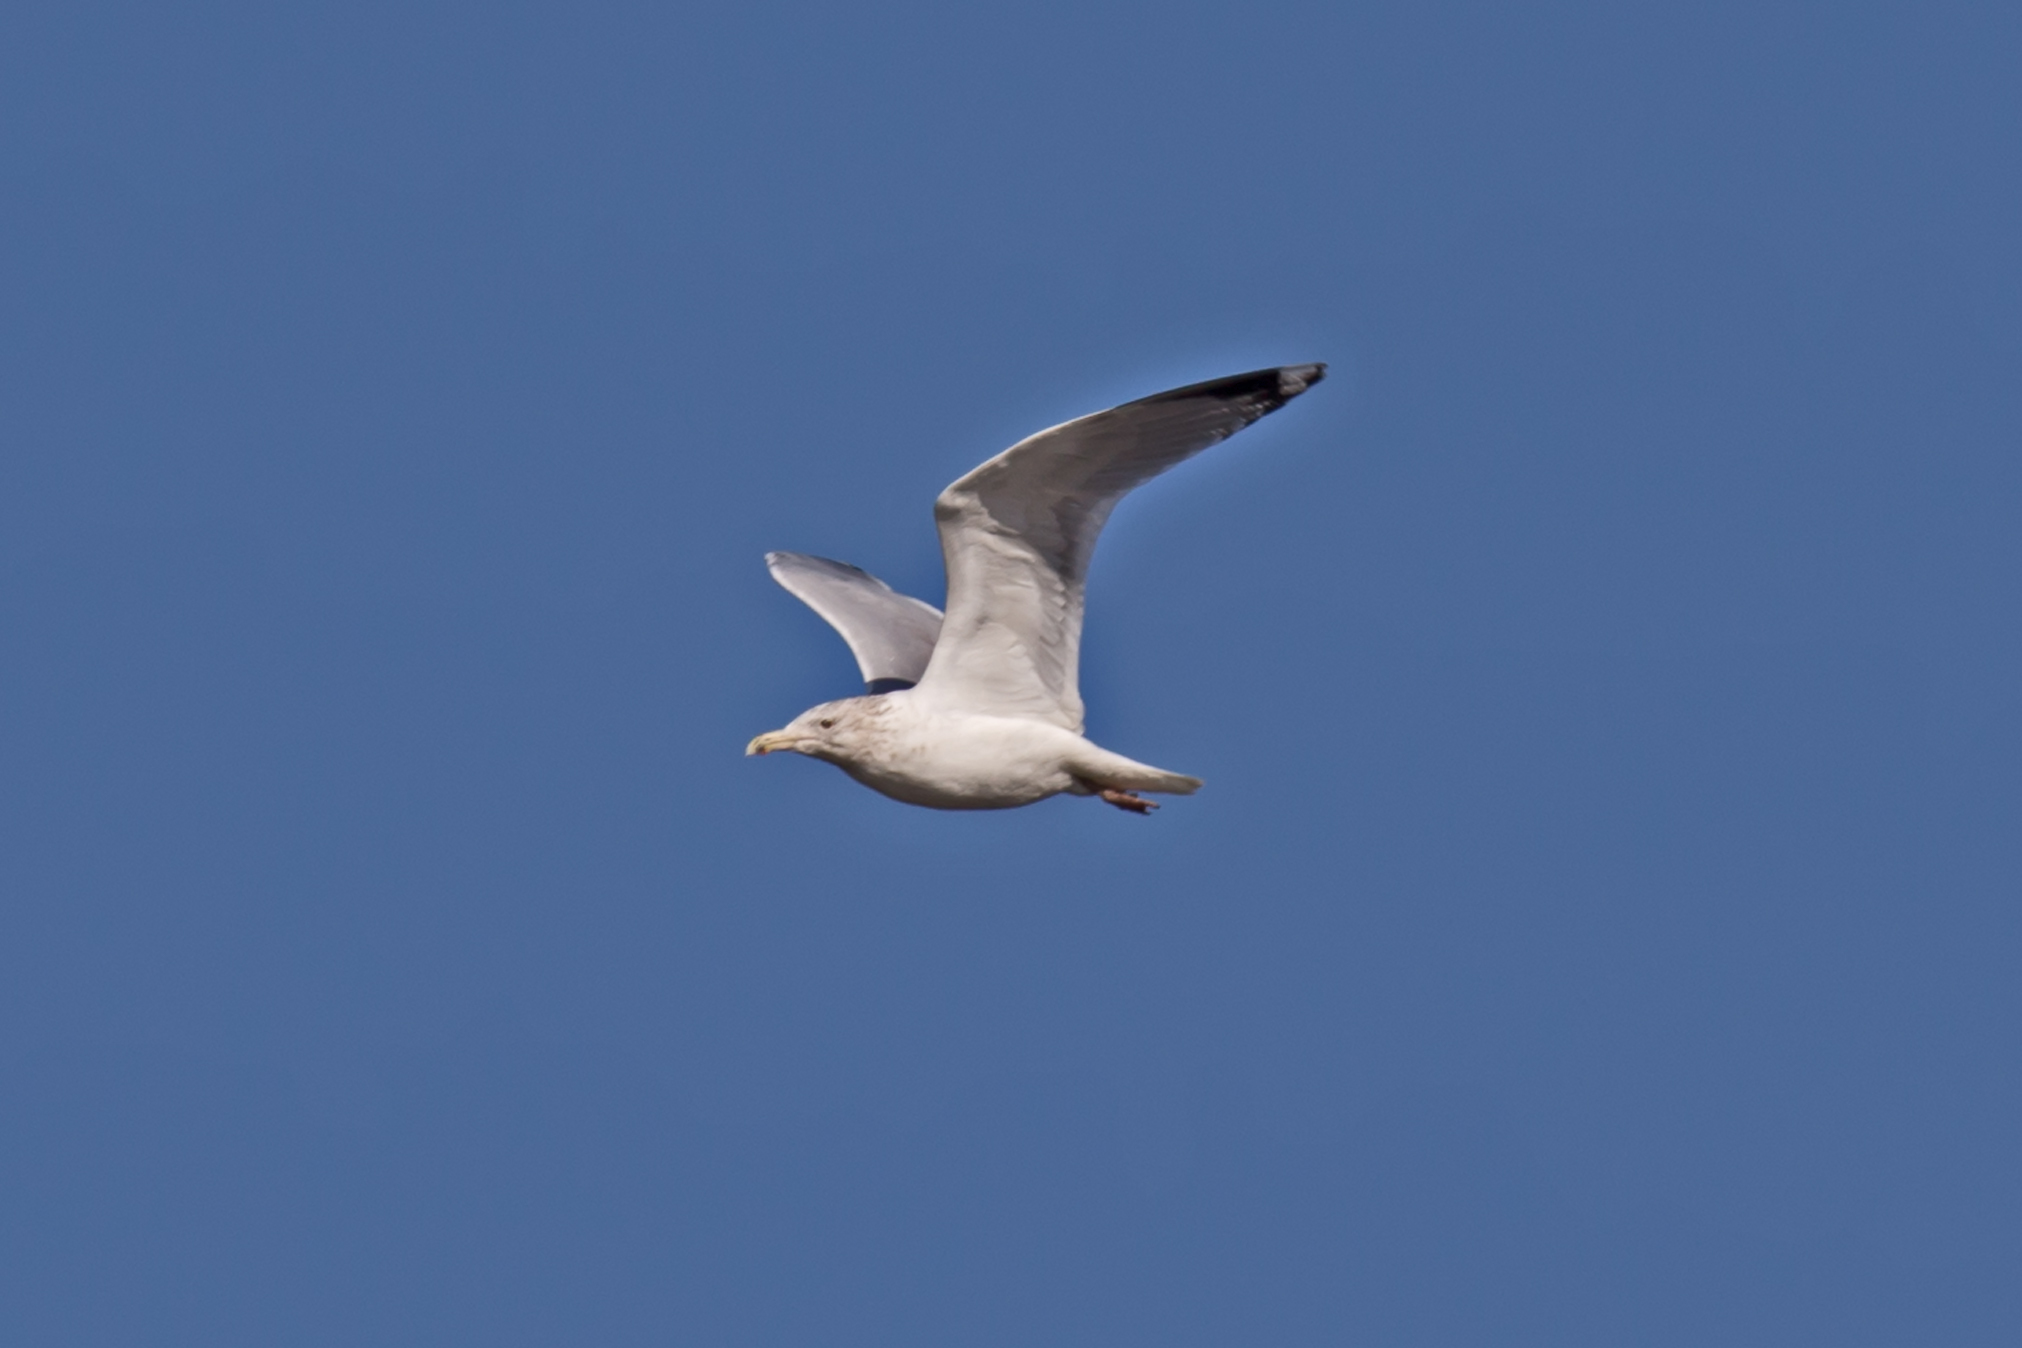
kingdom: Animalia
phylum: Chordata
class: Aves
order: Charadriiformes
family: Laridae
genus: Larus
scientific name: Larus argentatus
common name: Herring gull
